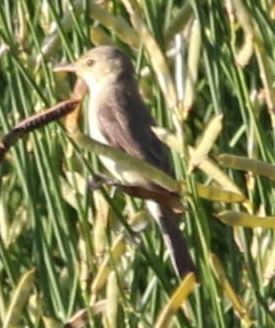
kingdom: Animalia
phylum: Chordata
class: Aves
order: Passeriformes
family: Acrocephalidae
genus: Hippolais
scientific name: Hippolais polyglotta
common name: Melodious warbler
